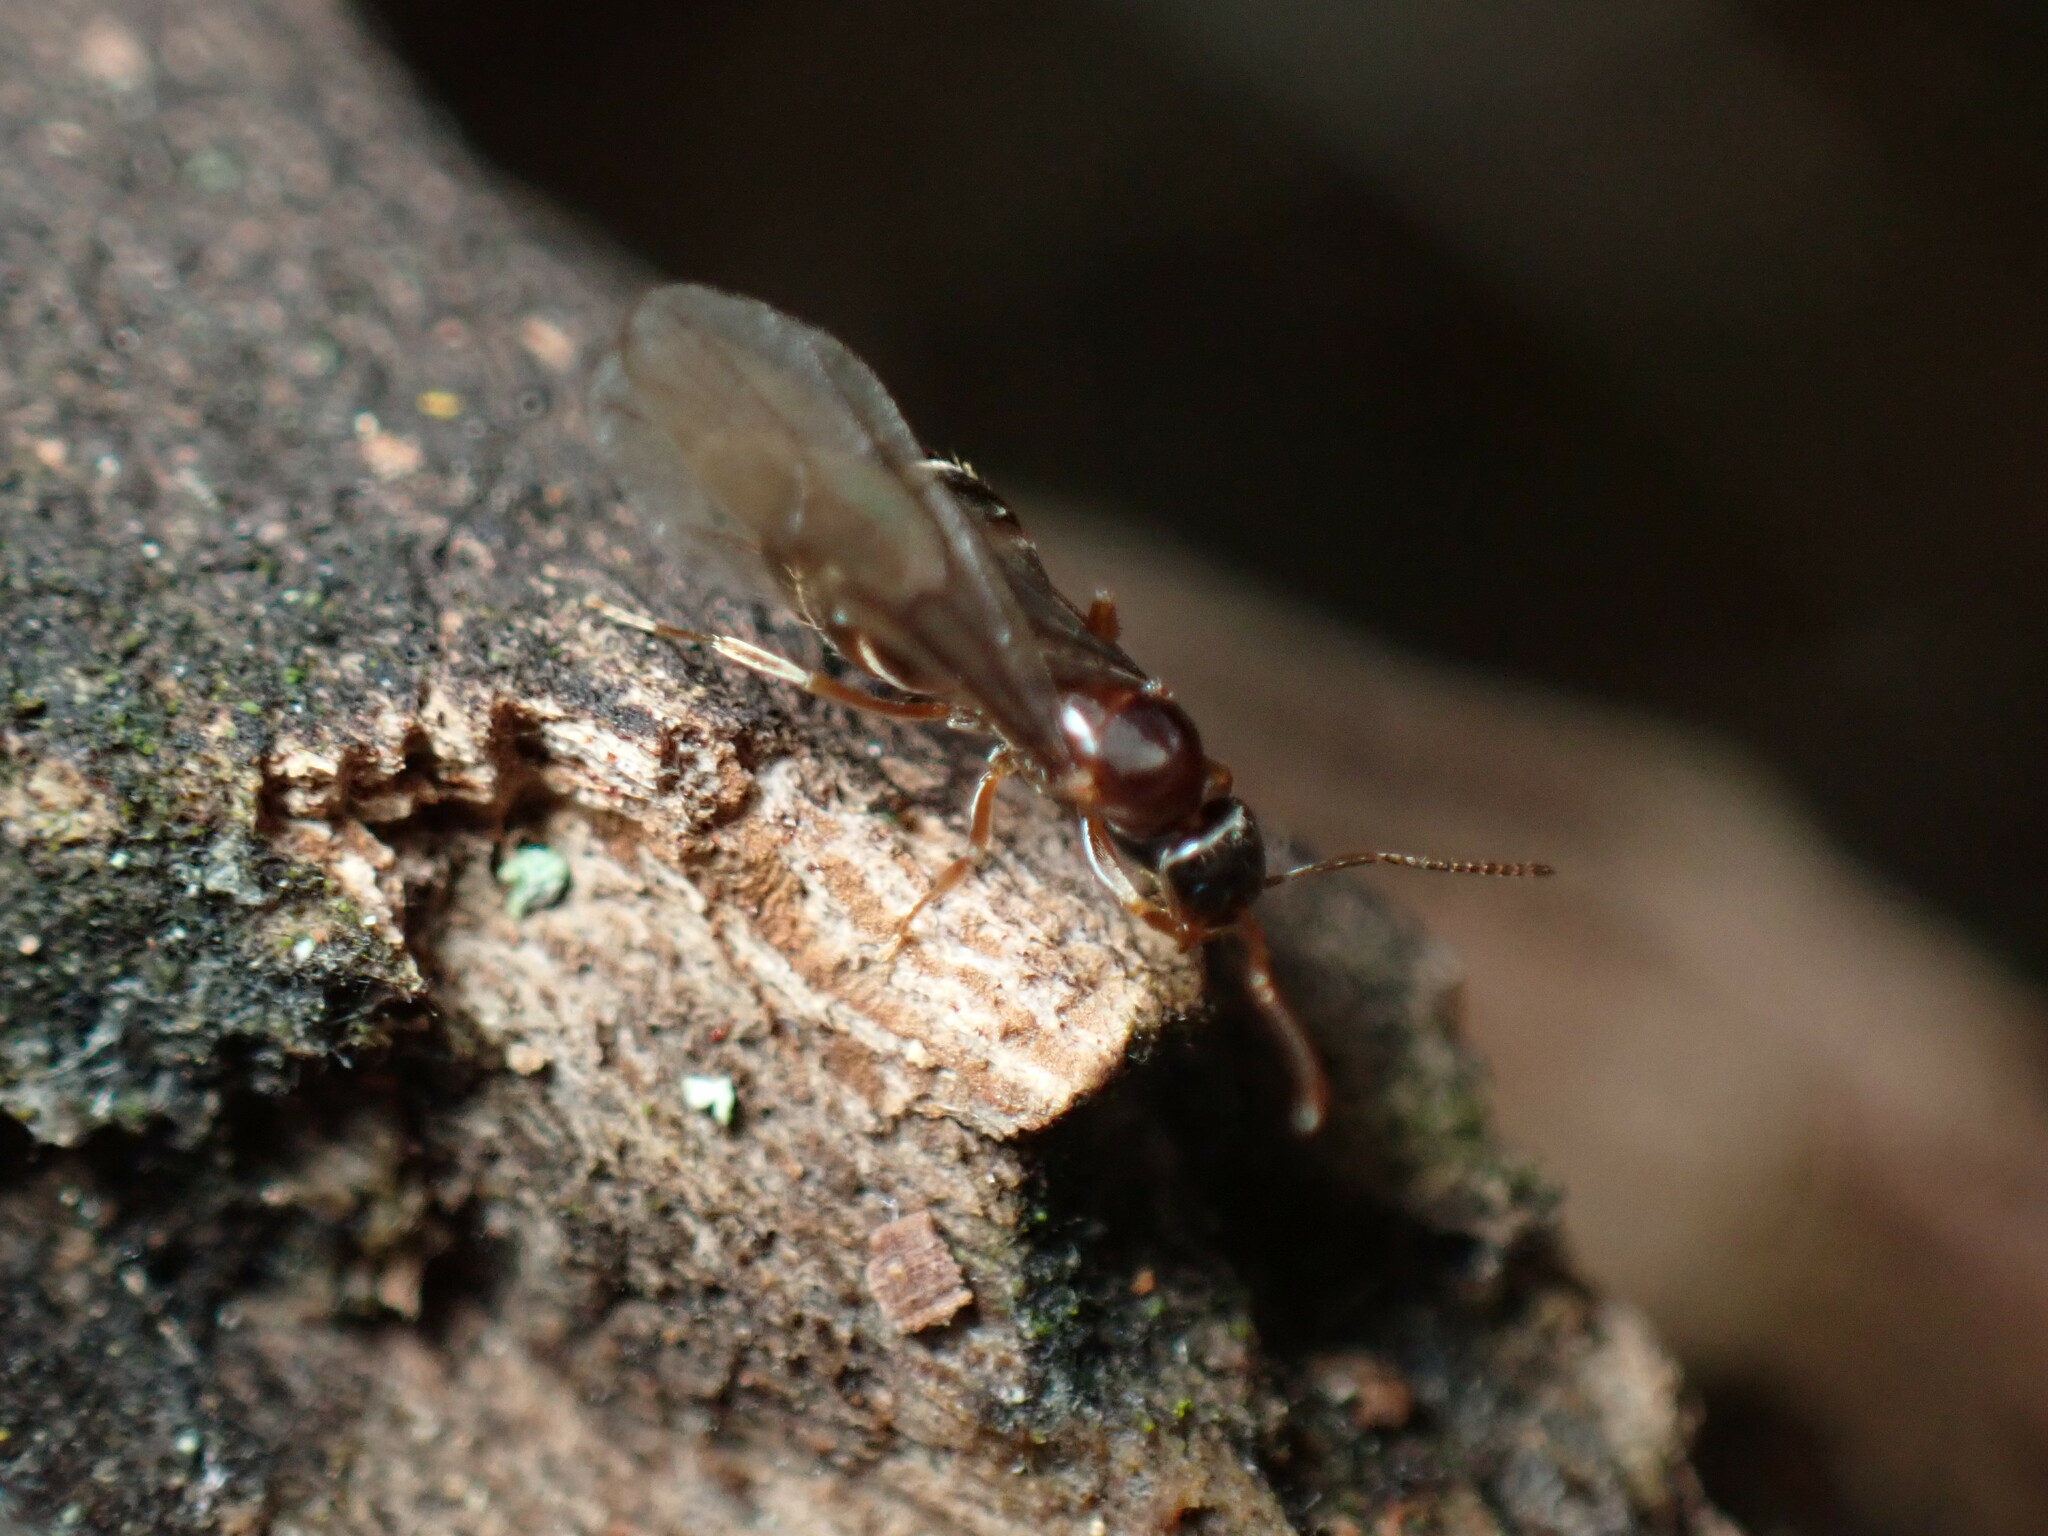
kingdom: Animalia
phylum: Arthropoda
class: Insecta
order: Hymenoptera
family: Formicidae
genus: Paratrechina
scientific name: Paratrechina flavipes
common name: Eastern asian formicine ant
